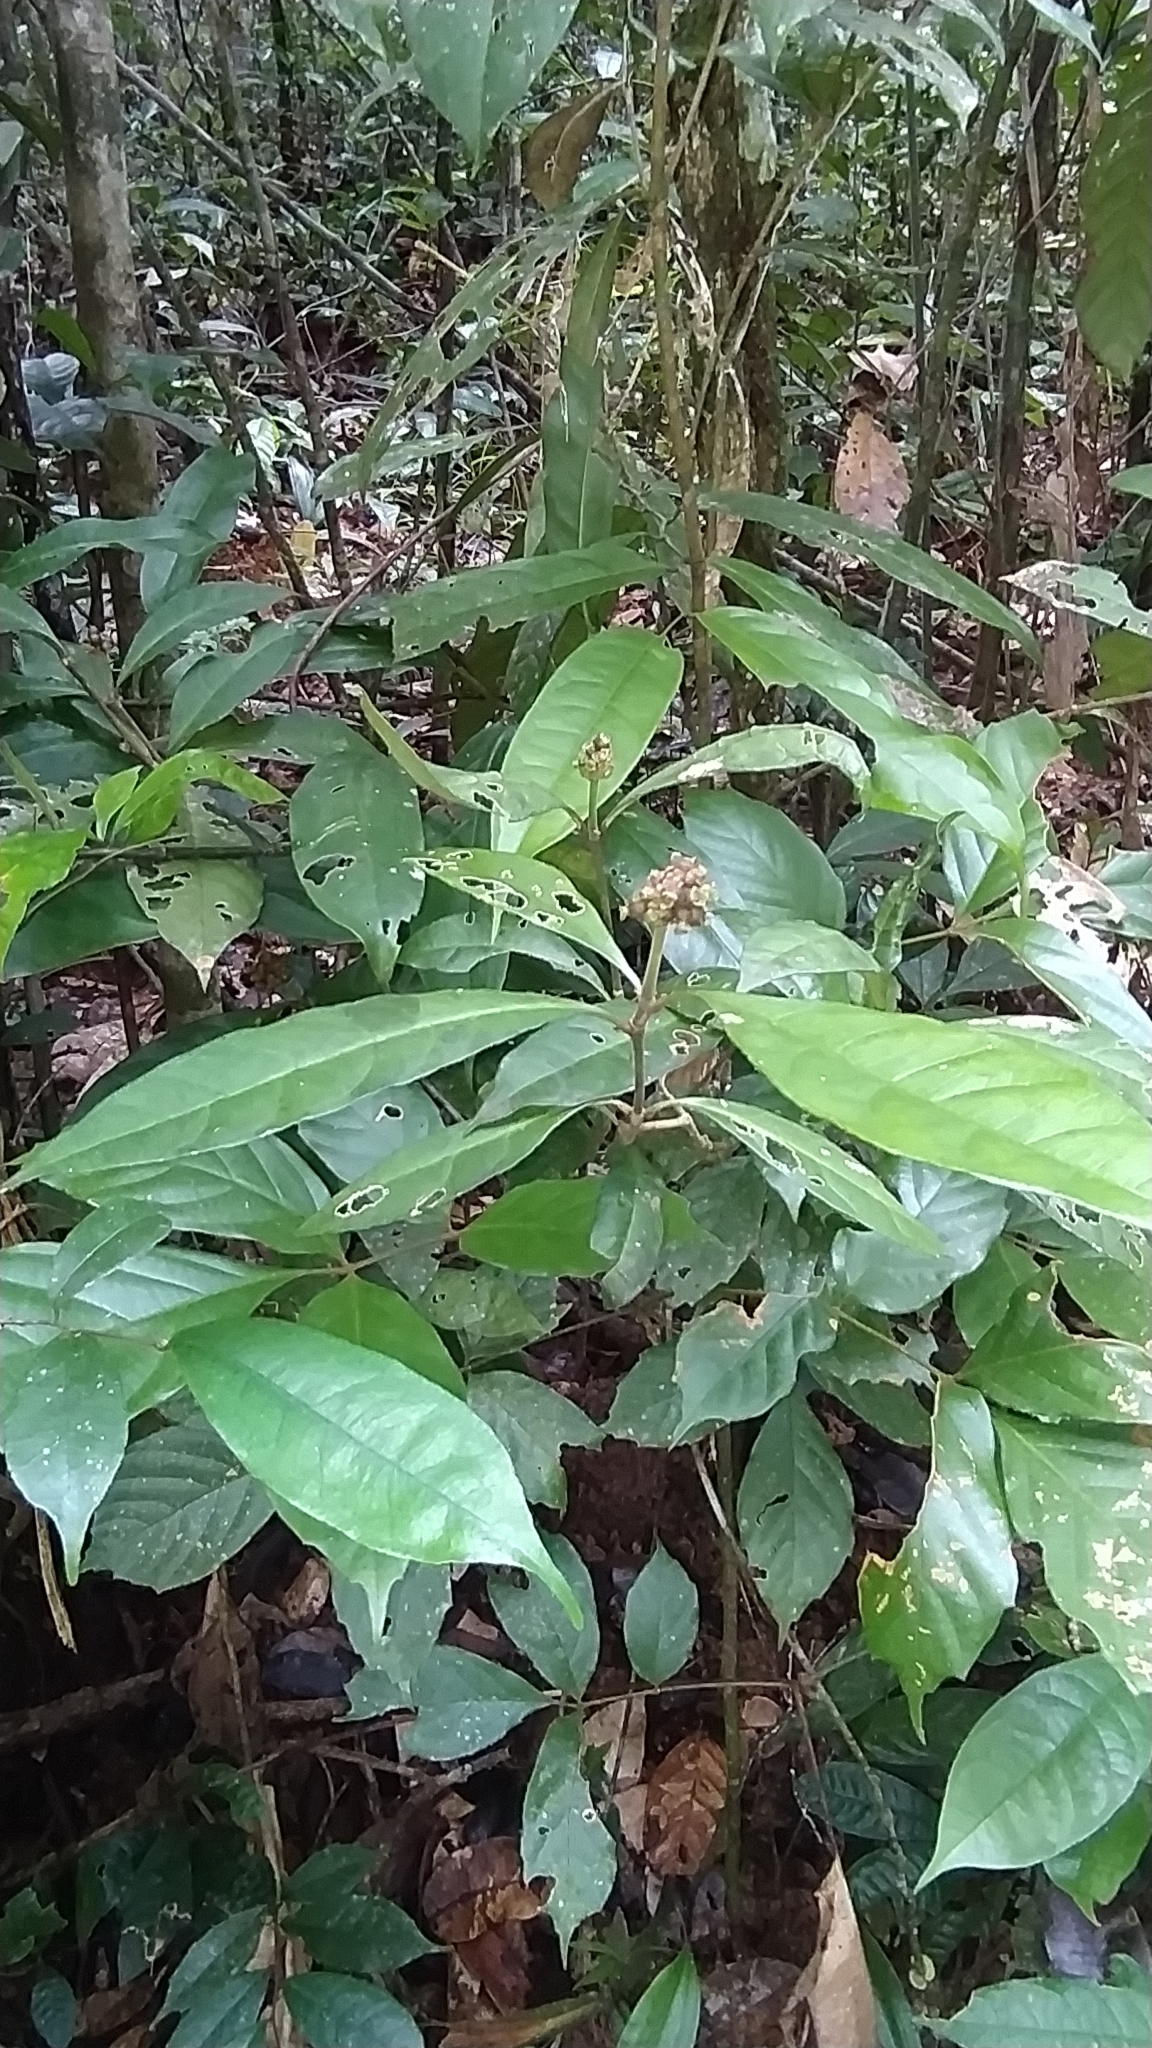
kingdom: Plantae
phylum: Tracheophyta
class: Magnoliopsida
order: Gentianales
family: Rubiaceae
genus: Eumachia
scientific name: Eumachia guianensis
